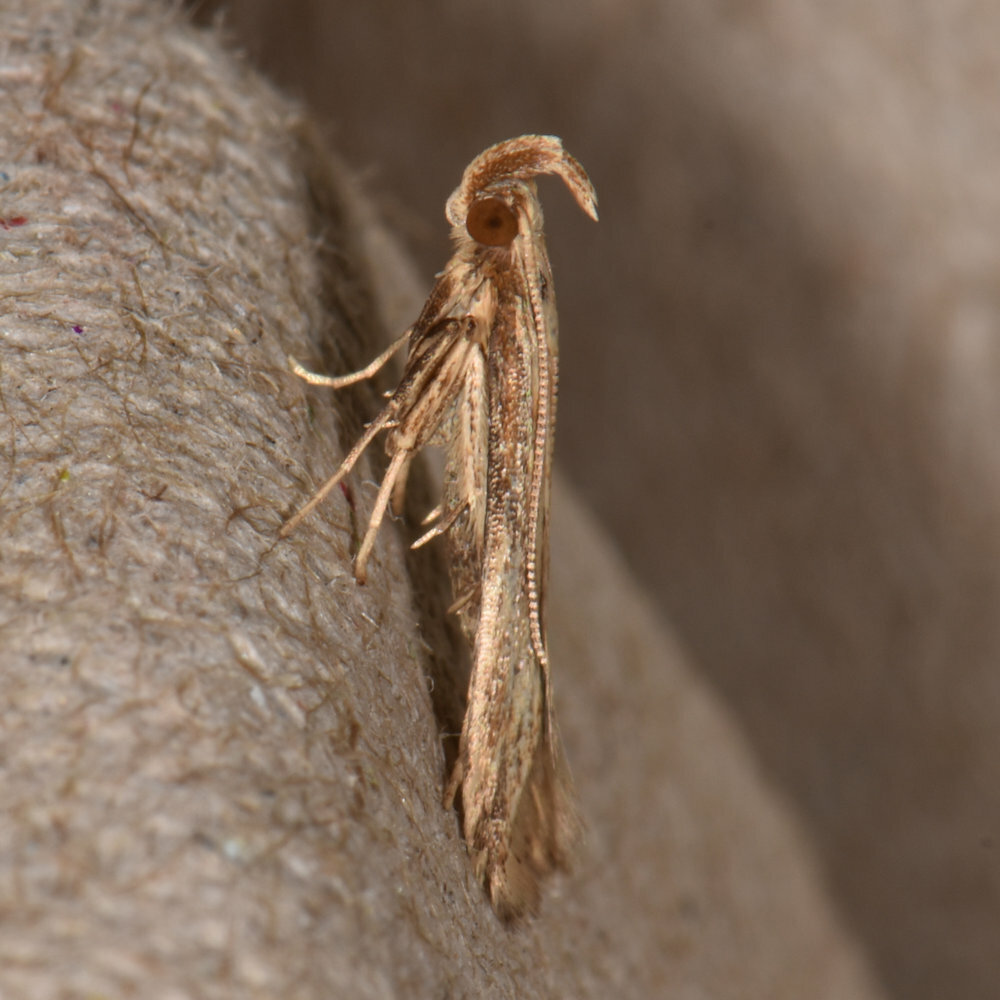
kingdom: Animalia
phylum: Arthropoda
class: Insecta
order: Lepidoptera
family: Gelechiidae
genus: Metzneria
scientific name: Metzneria lappella
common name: Burdock neb
